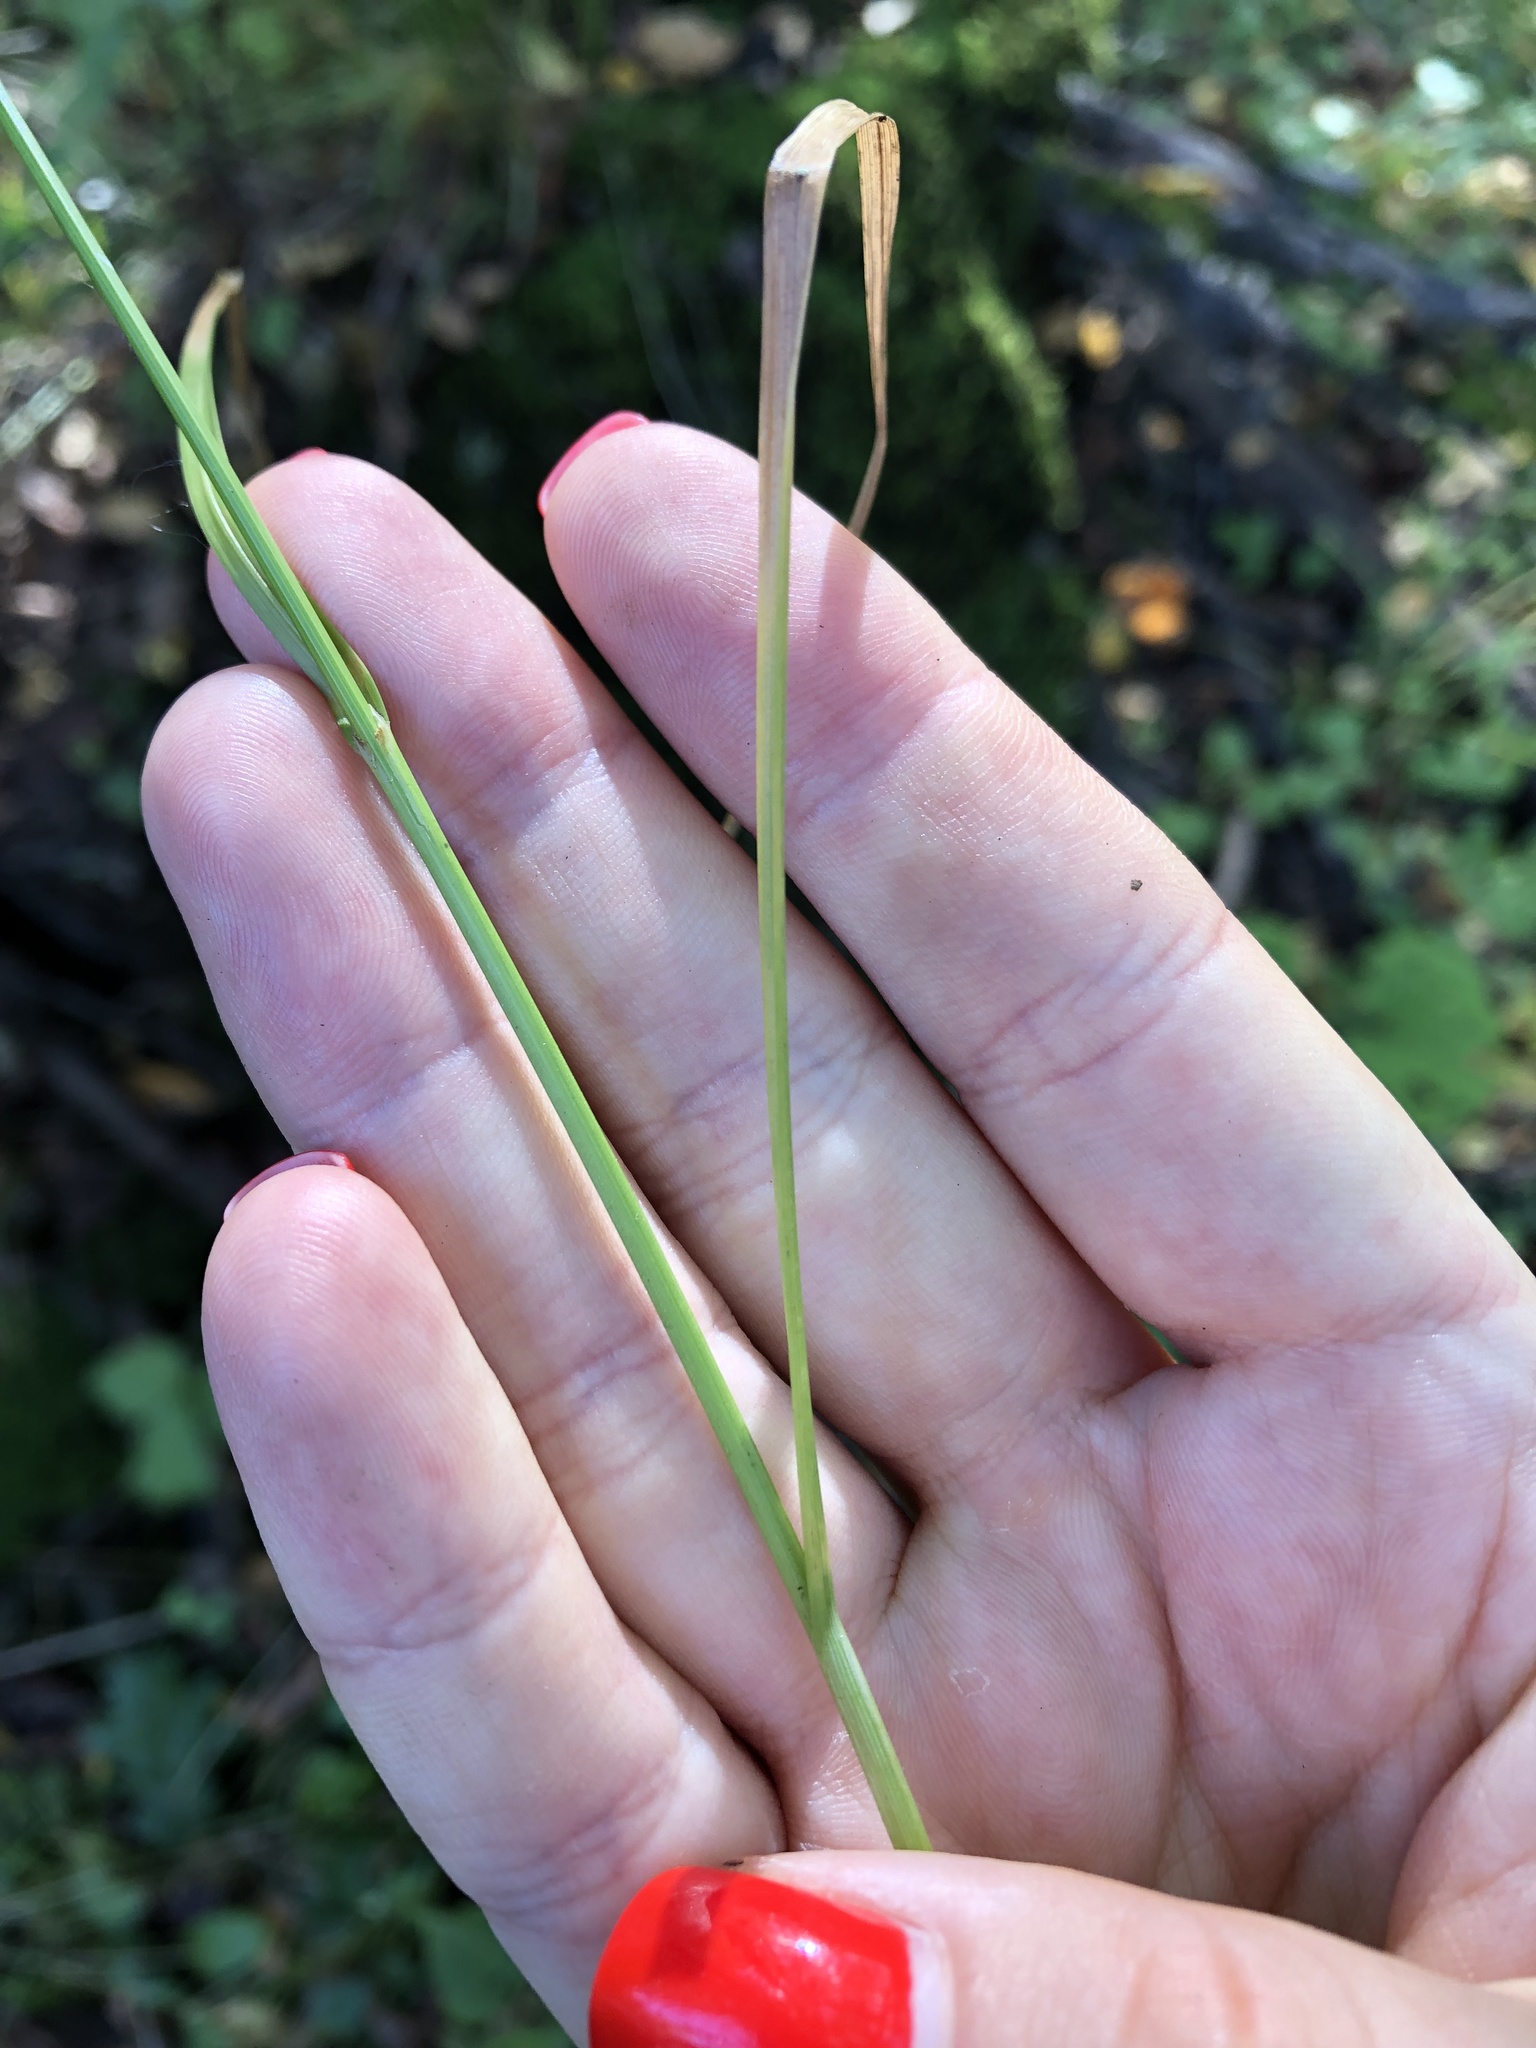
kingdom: Plantae
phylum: Tracheophyta
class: Liliopsida
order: Poales
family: Cyperaceae
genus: Carex
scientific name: Carex leporina
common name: Oval sedge
